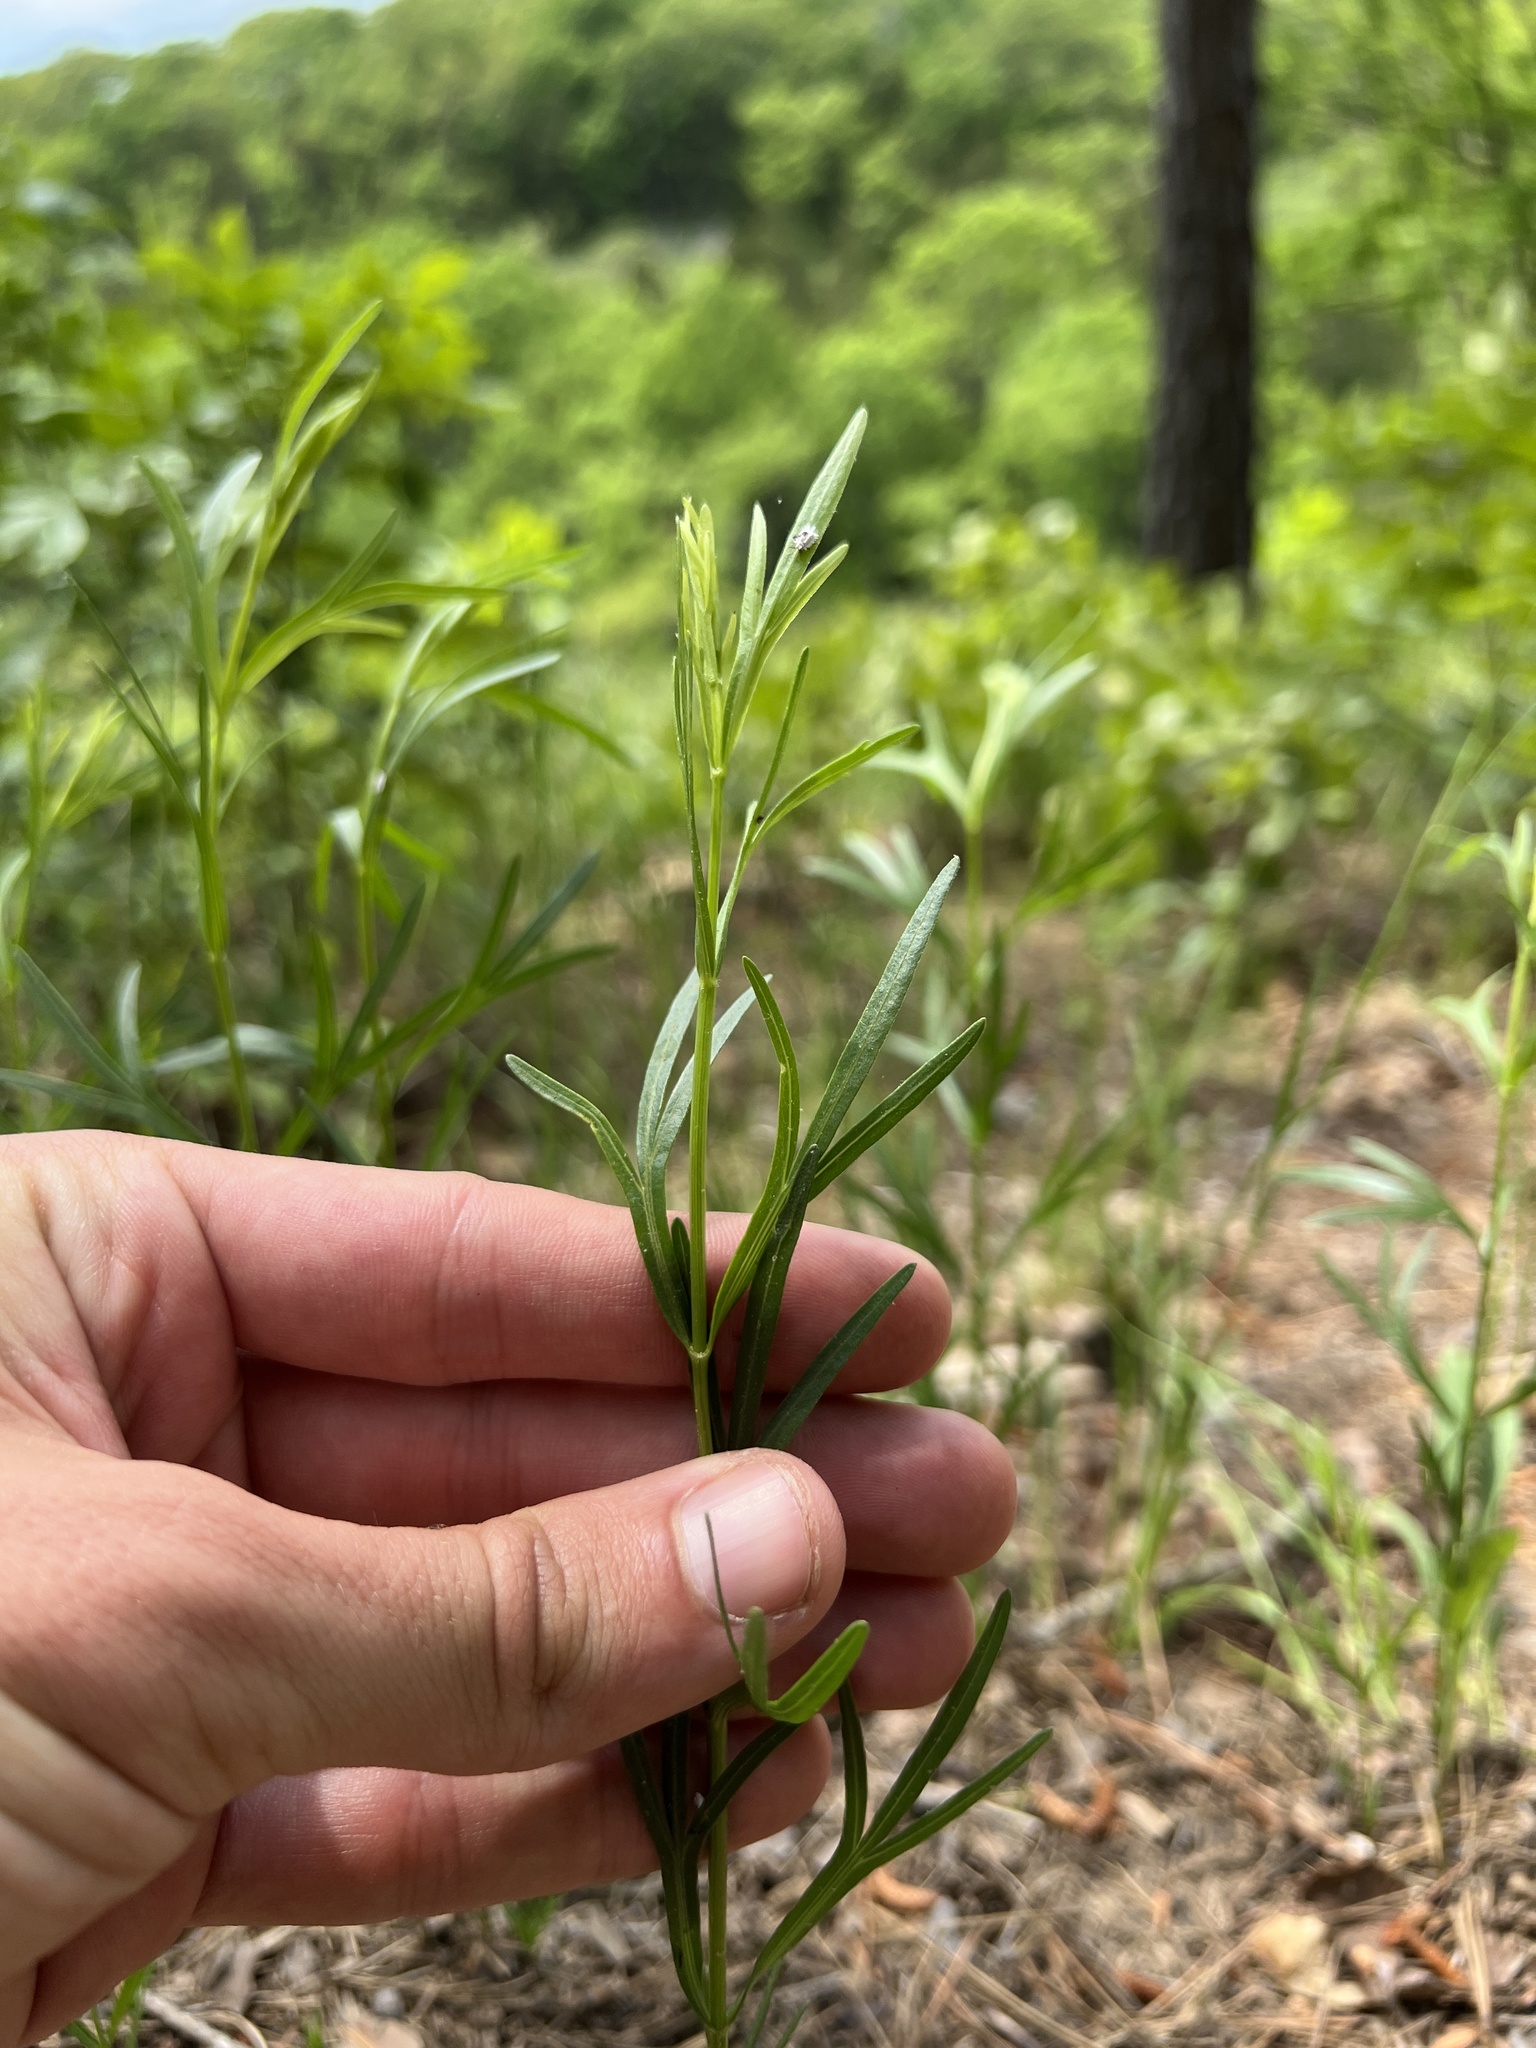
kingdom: Plantae
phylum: Tracheophyta
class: Magnoliopsida
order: Asterales
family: Asteraceae
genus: Coreopsis
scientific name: Coreopsis palmata
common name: Prairie coreopsis
